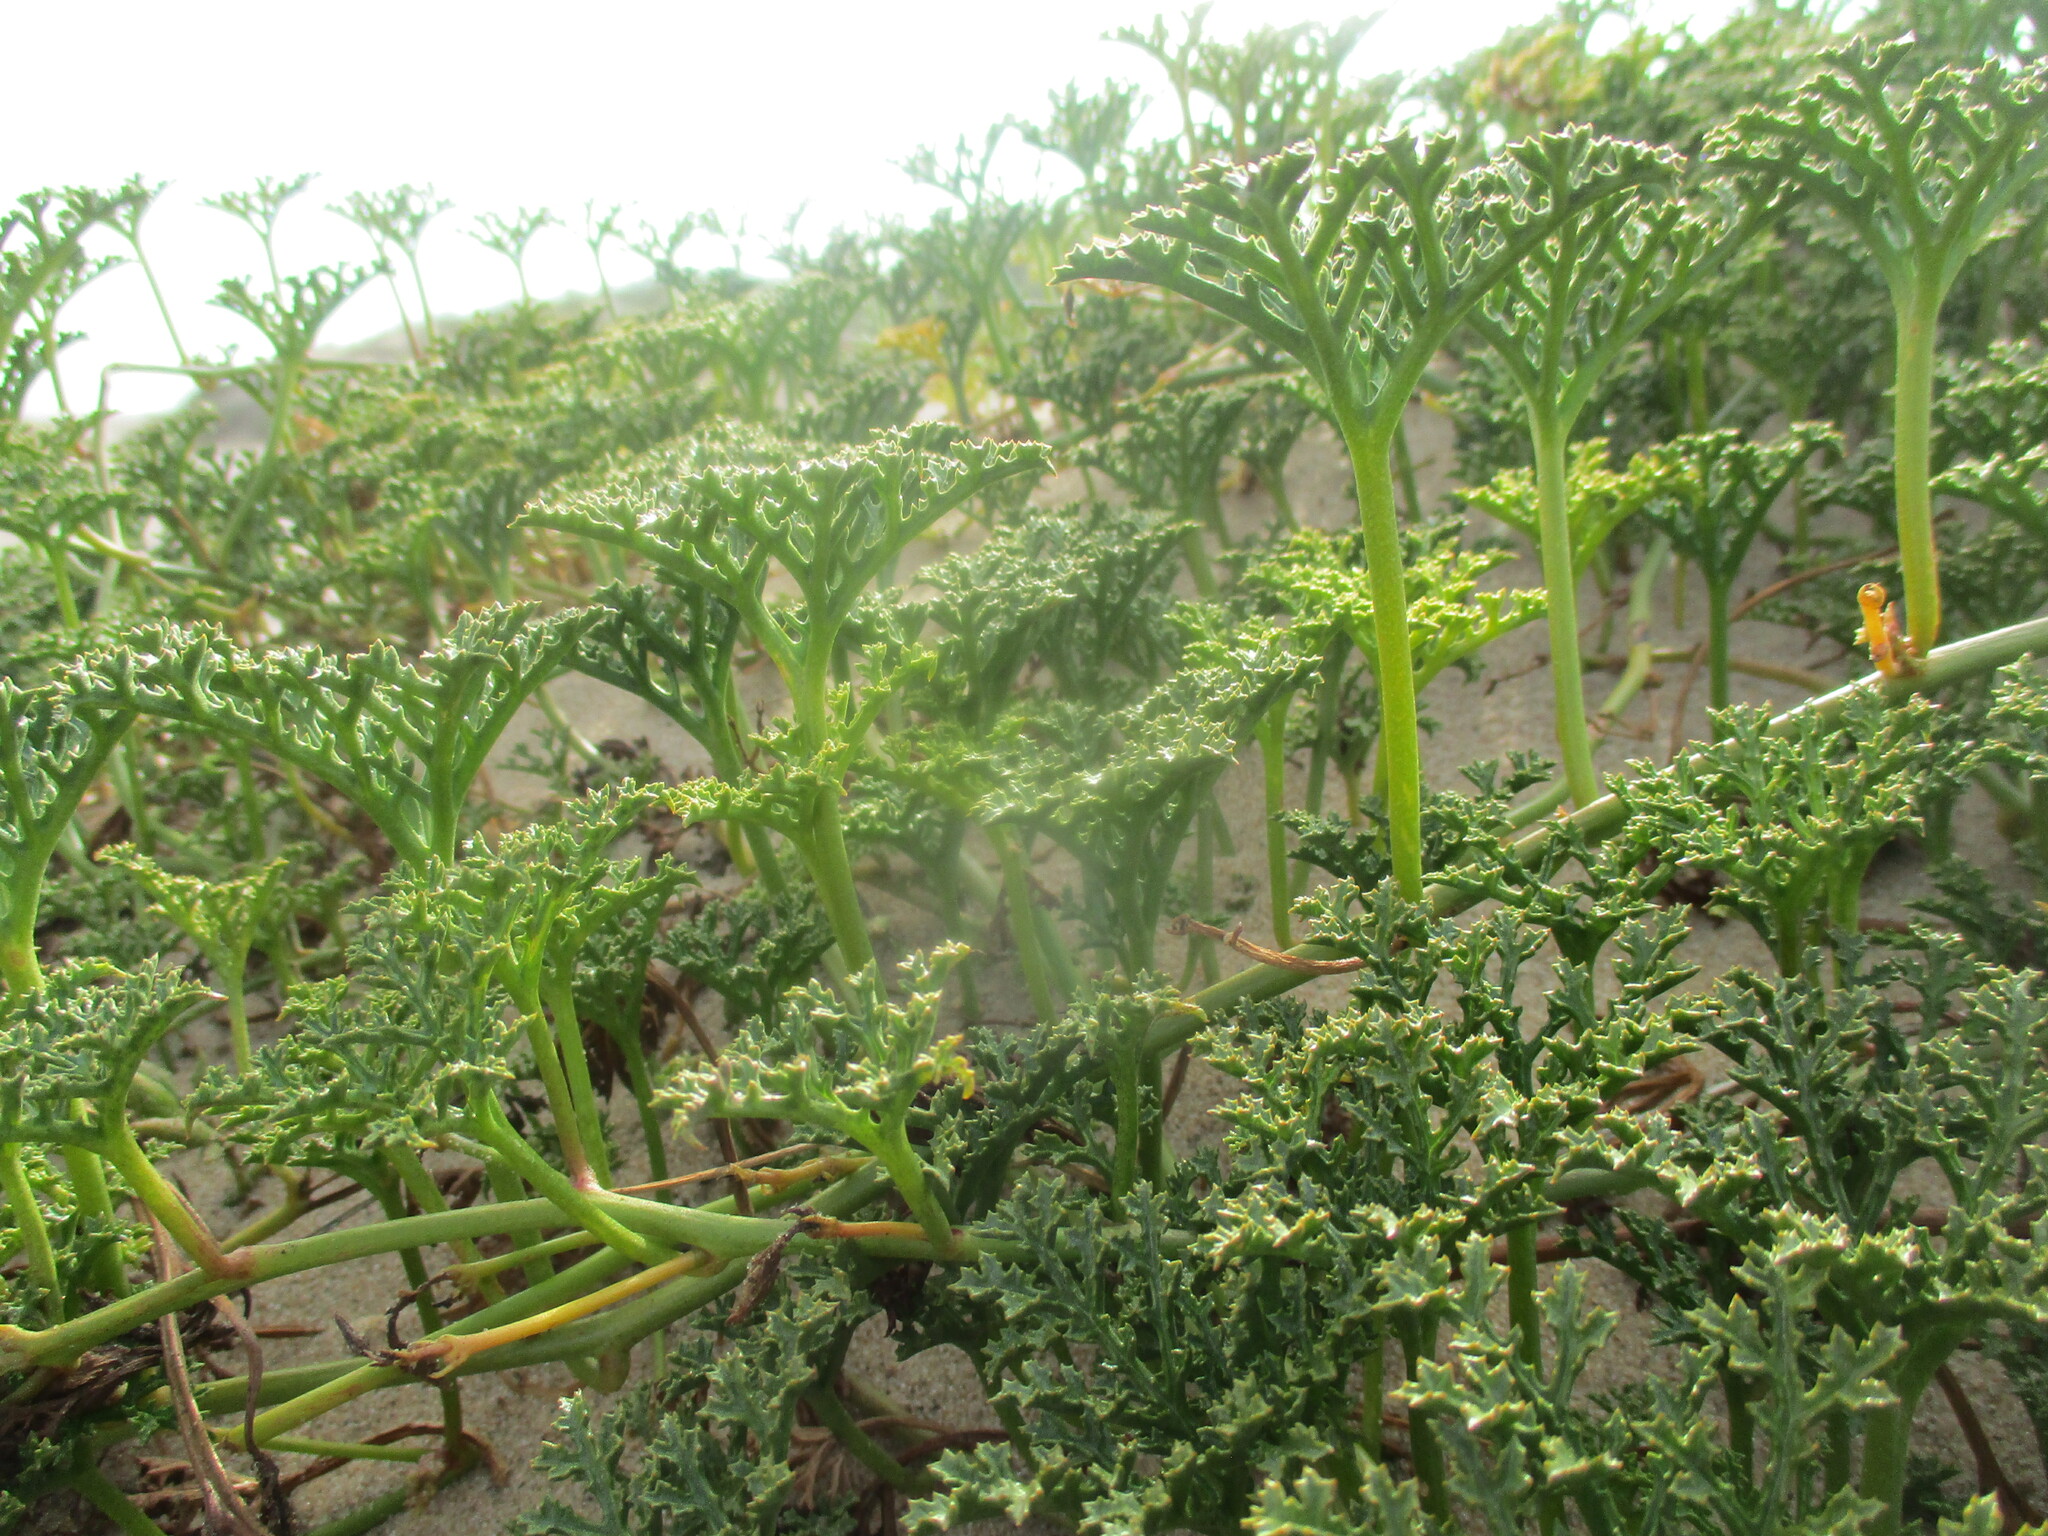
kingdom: Plantae
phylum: Tracheophyta
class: Magnoliopsida
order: Solanales
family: Convolvulaceae
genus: Distimake
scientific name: Distimake multisectus
